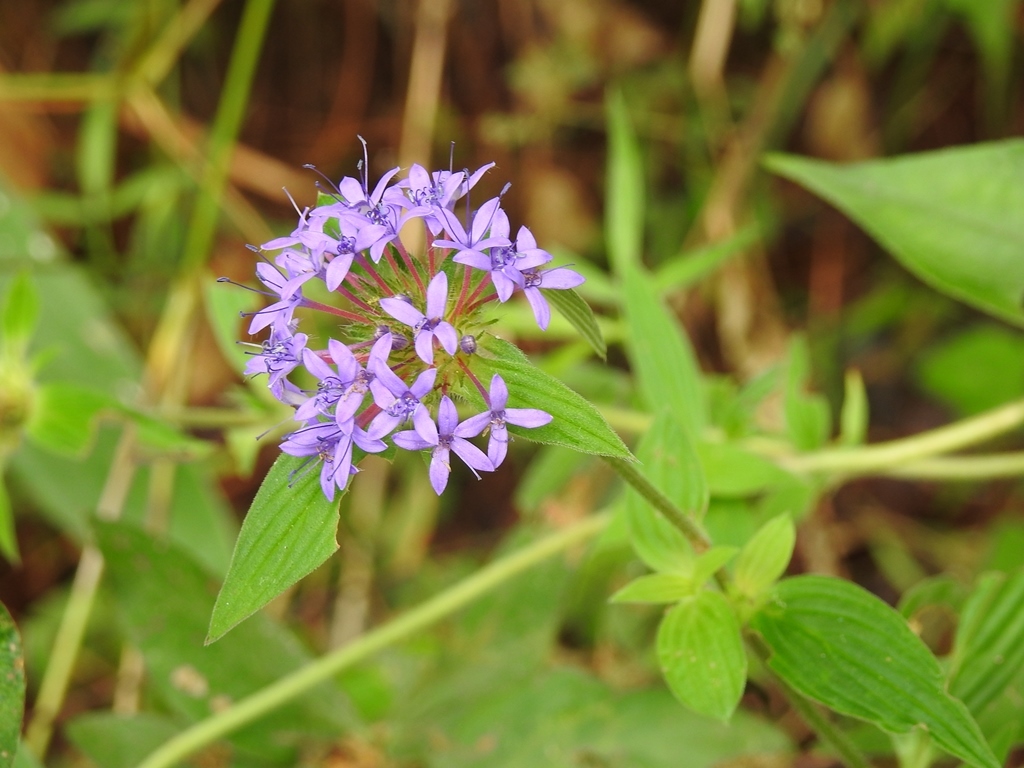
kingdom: Plantae
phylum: Tracheophyta
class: Magnoliopsida
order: Gentianales
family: Rubiaceae
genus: Crusea
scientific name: Crusea calocephala
